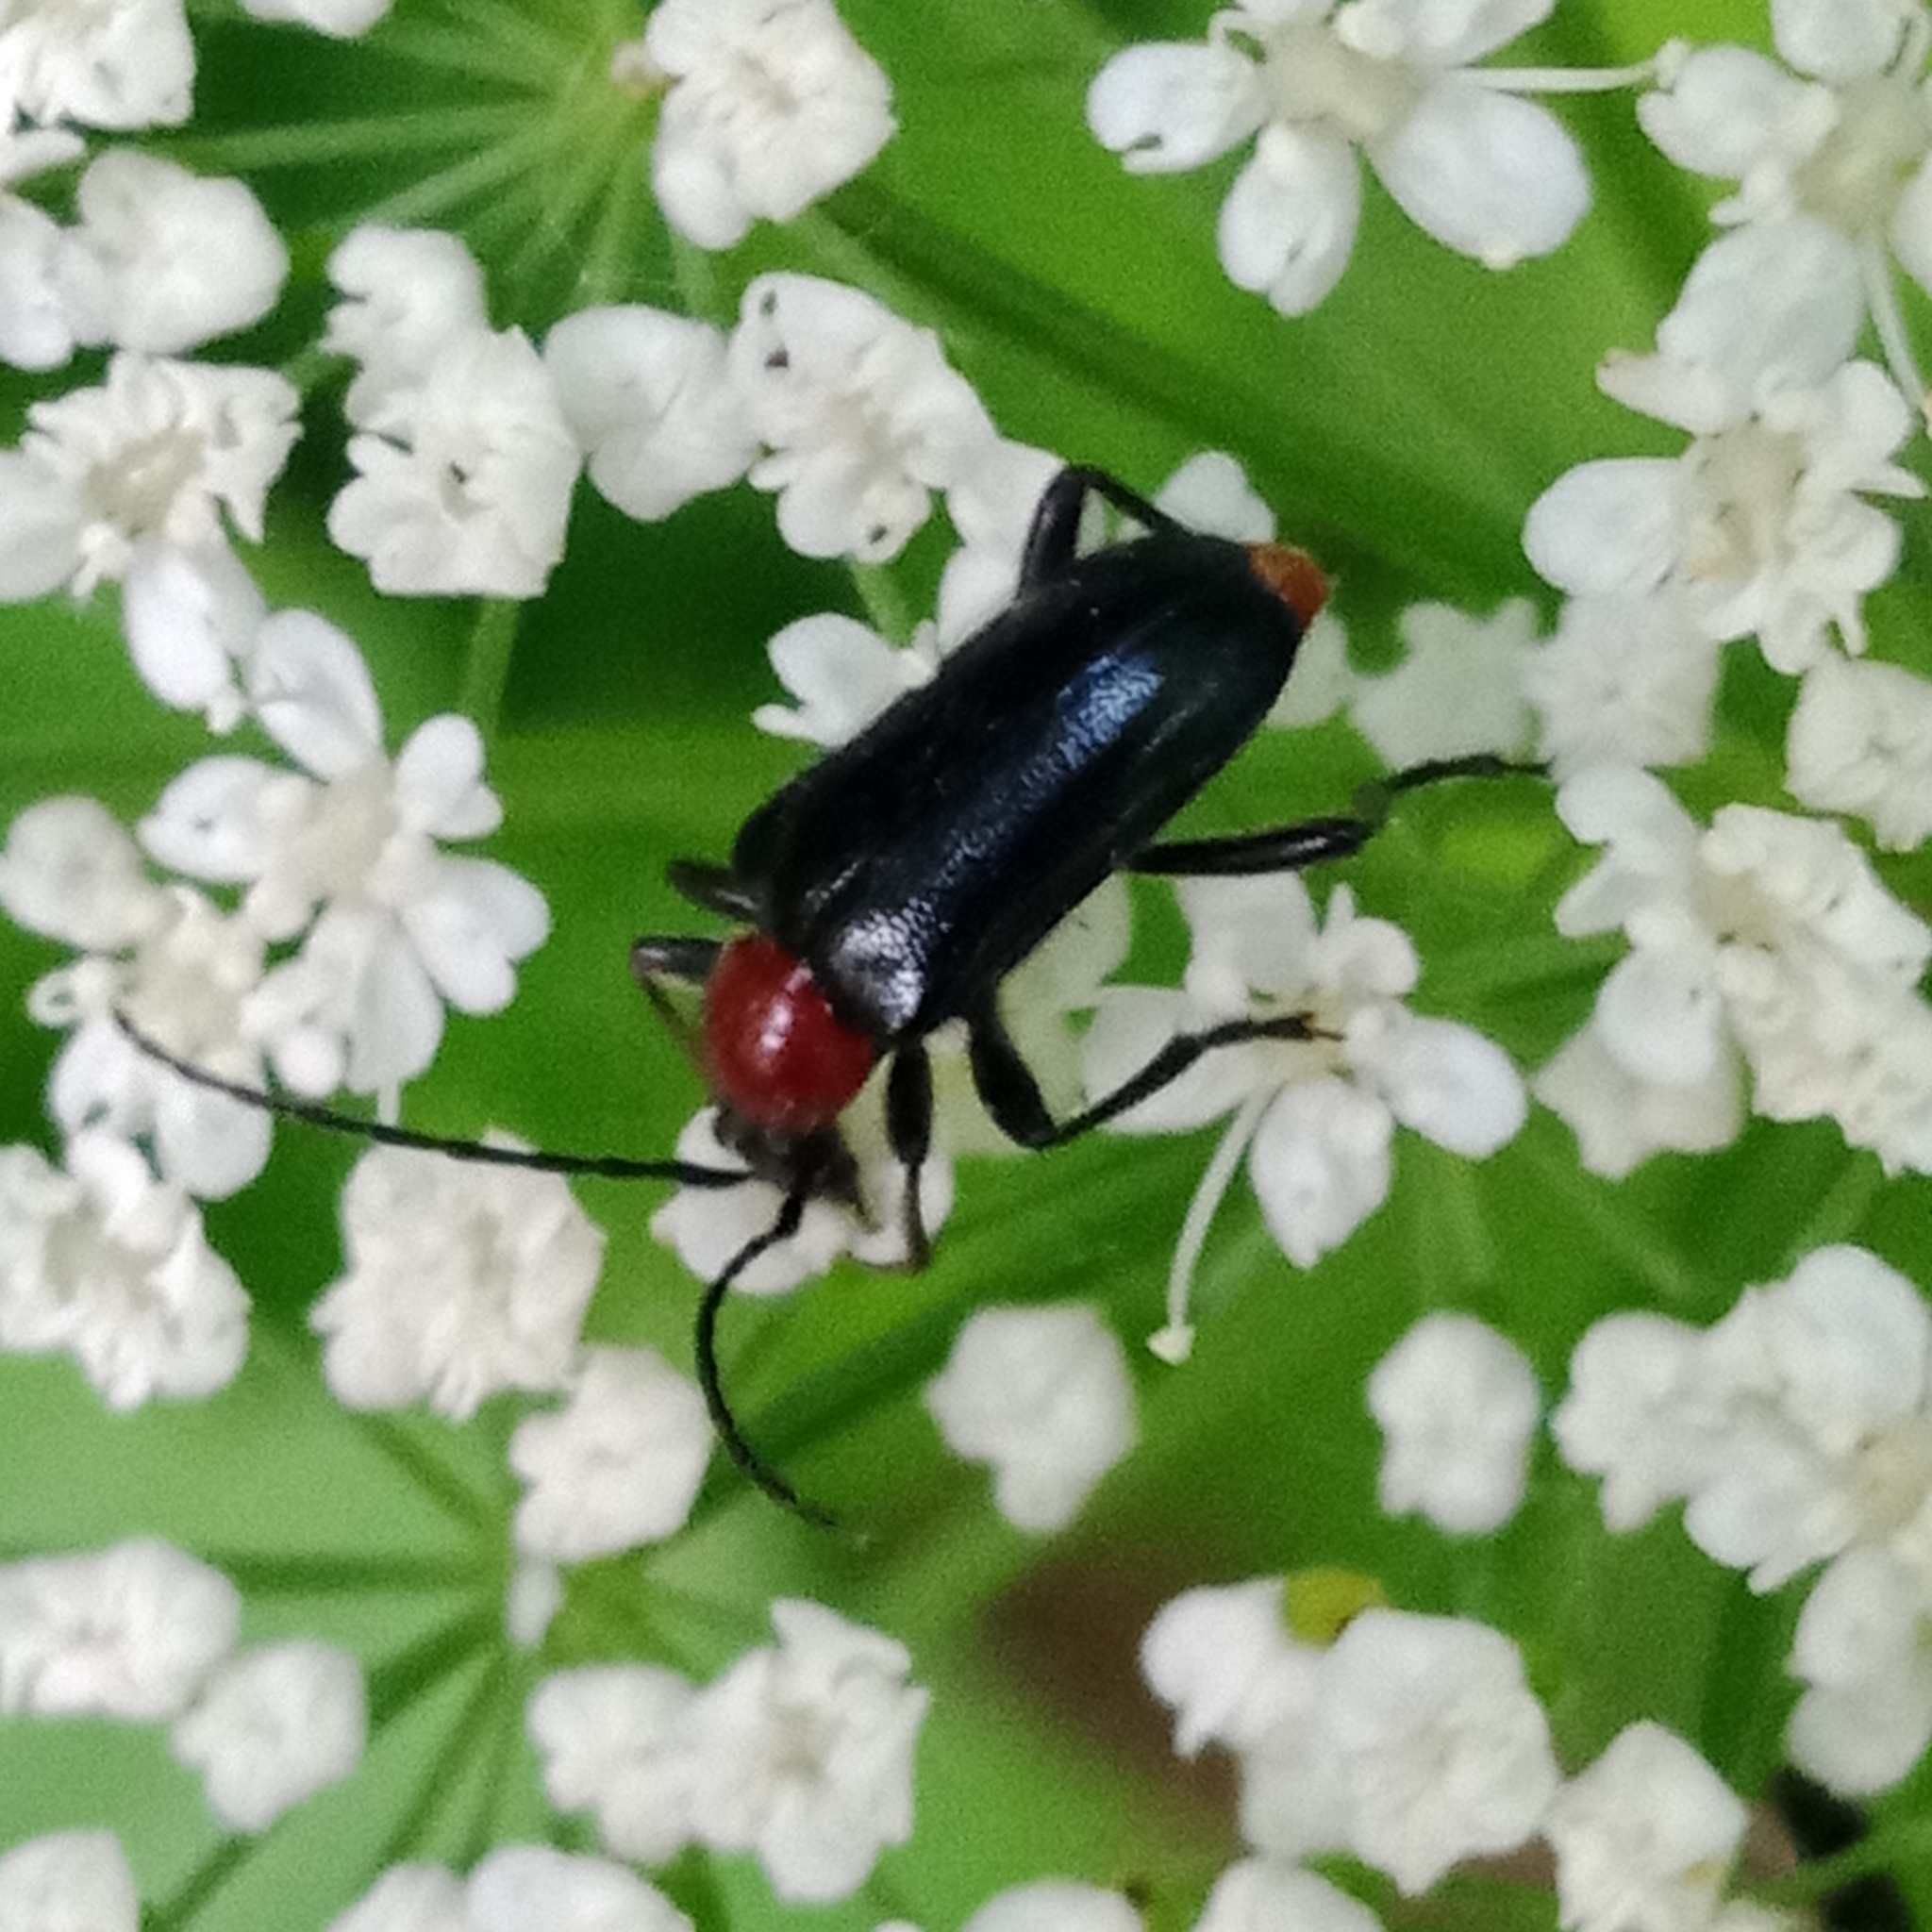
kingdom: Animalia
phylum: Arthropoda
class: Insecta
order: Coleoptera
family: Cerambycidae
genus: Dinoptera
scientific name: Dinoptera collaris
